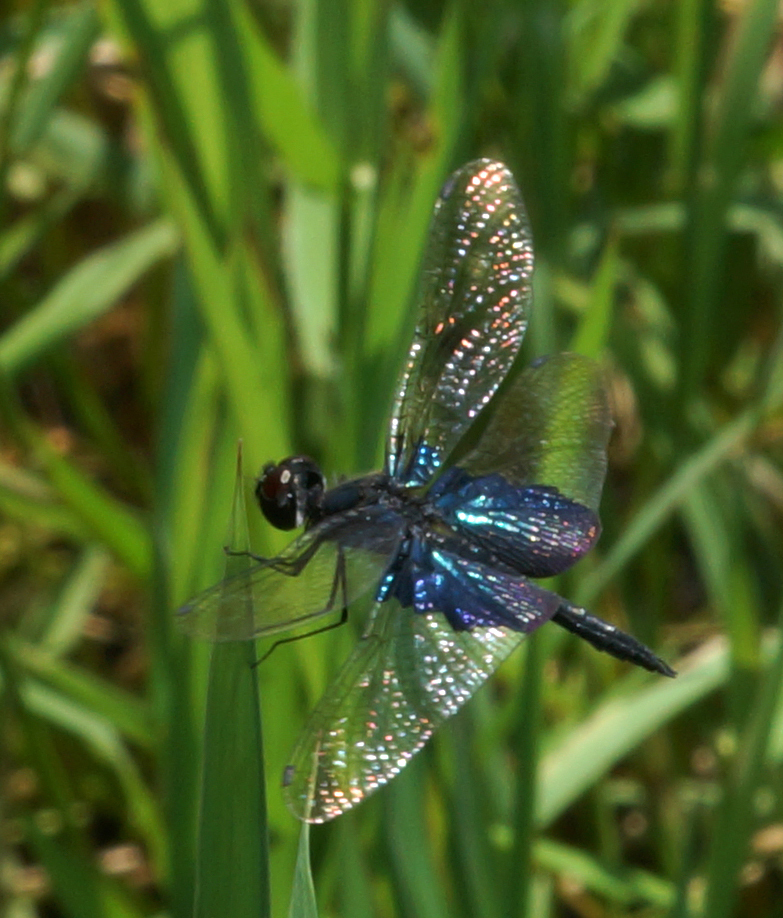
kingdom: Animalia
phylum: Arthropoda
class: Insecta
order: Odonata
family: Libellulidae
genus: Rhyothemis
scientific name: Rhyothemis triangularis
